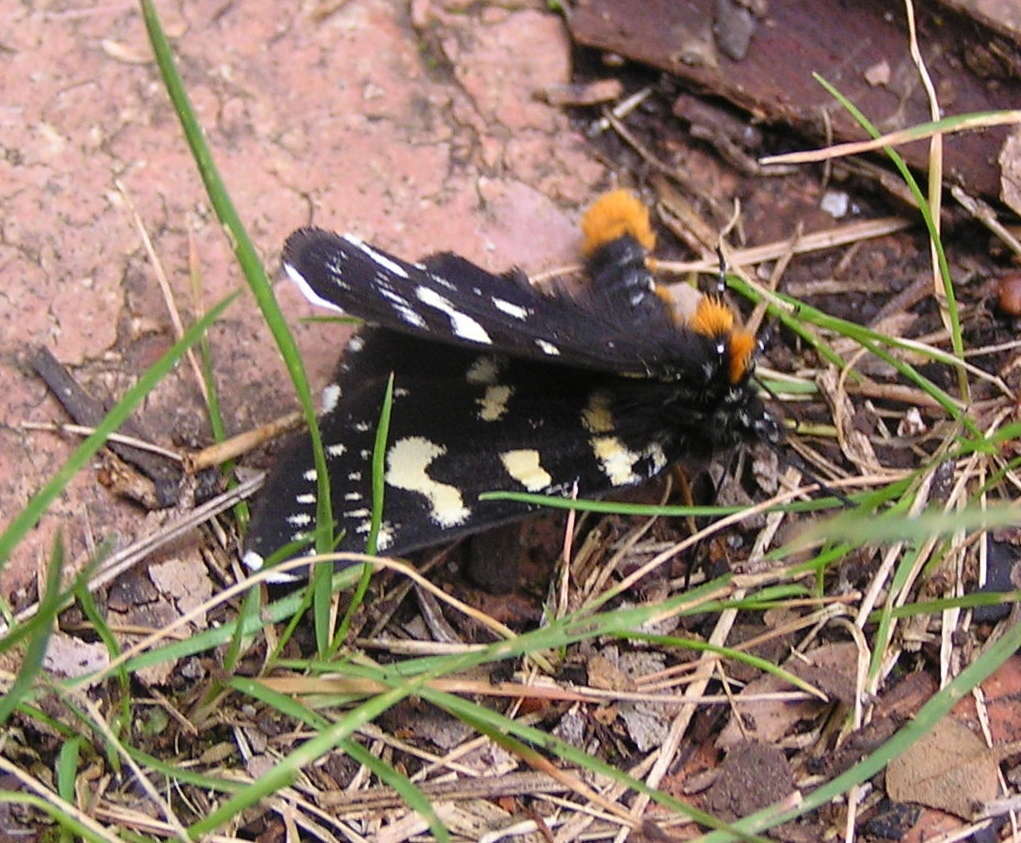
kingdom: Animalia
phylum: Arthropoda
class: Insecta
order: Lepidoptera
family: Noctuidae
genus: Phalaenoides
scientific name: Phalaenoides tristifica
